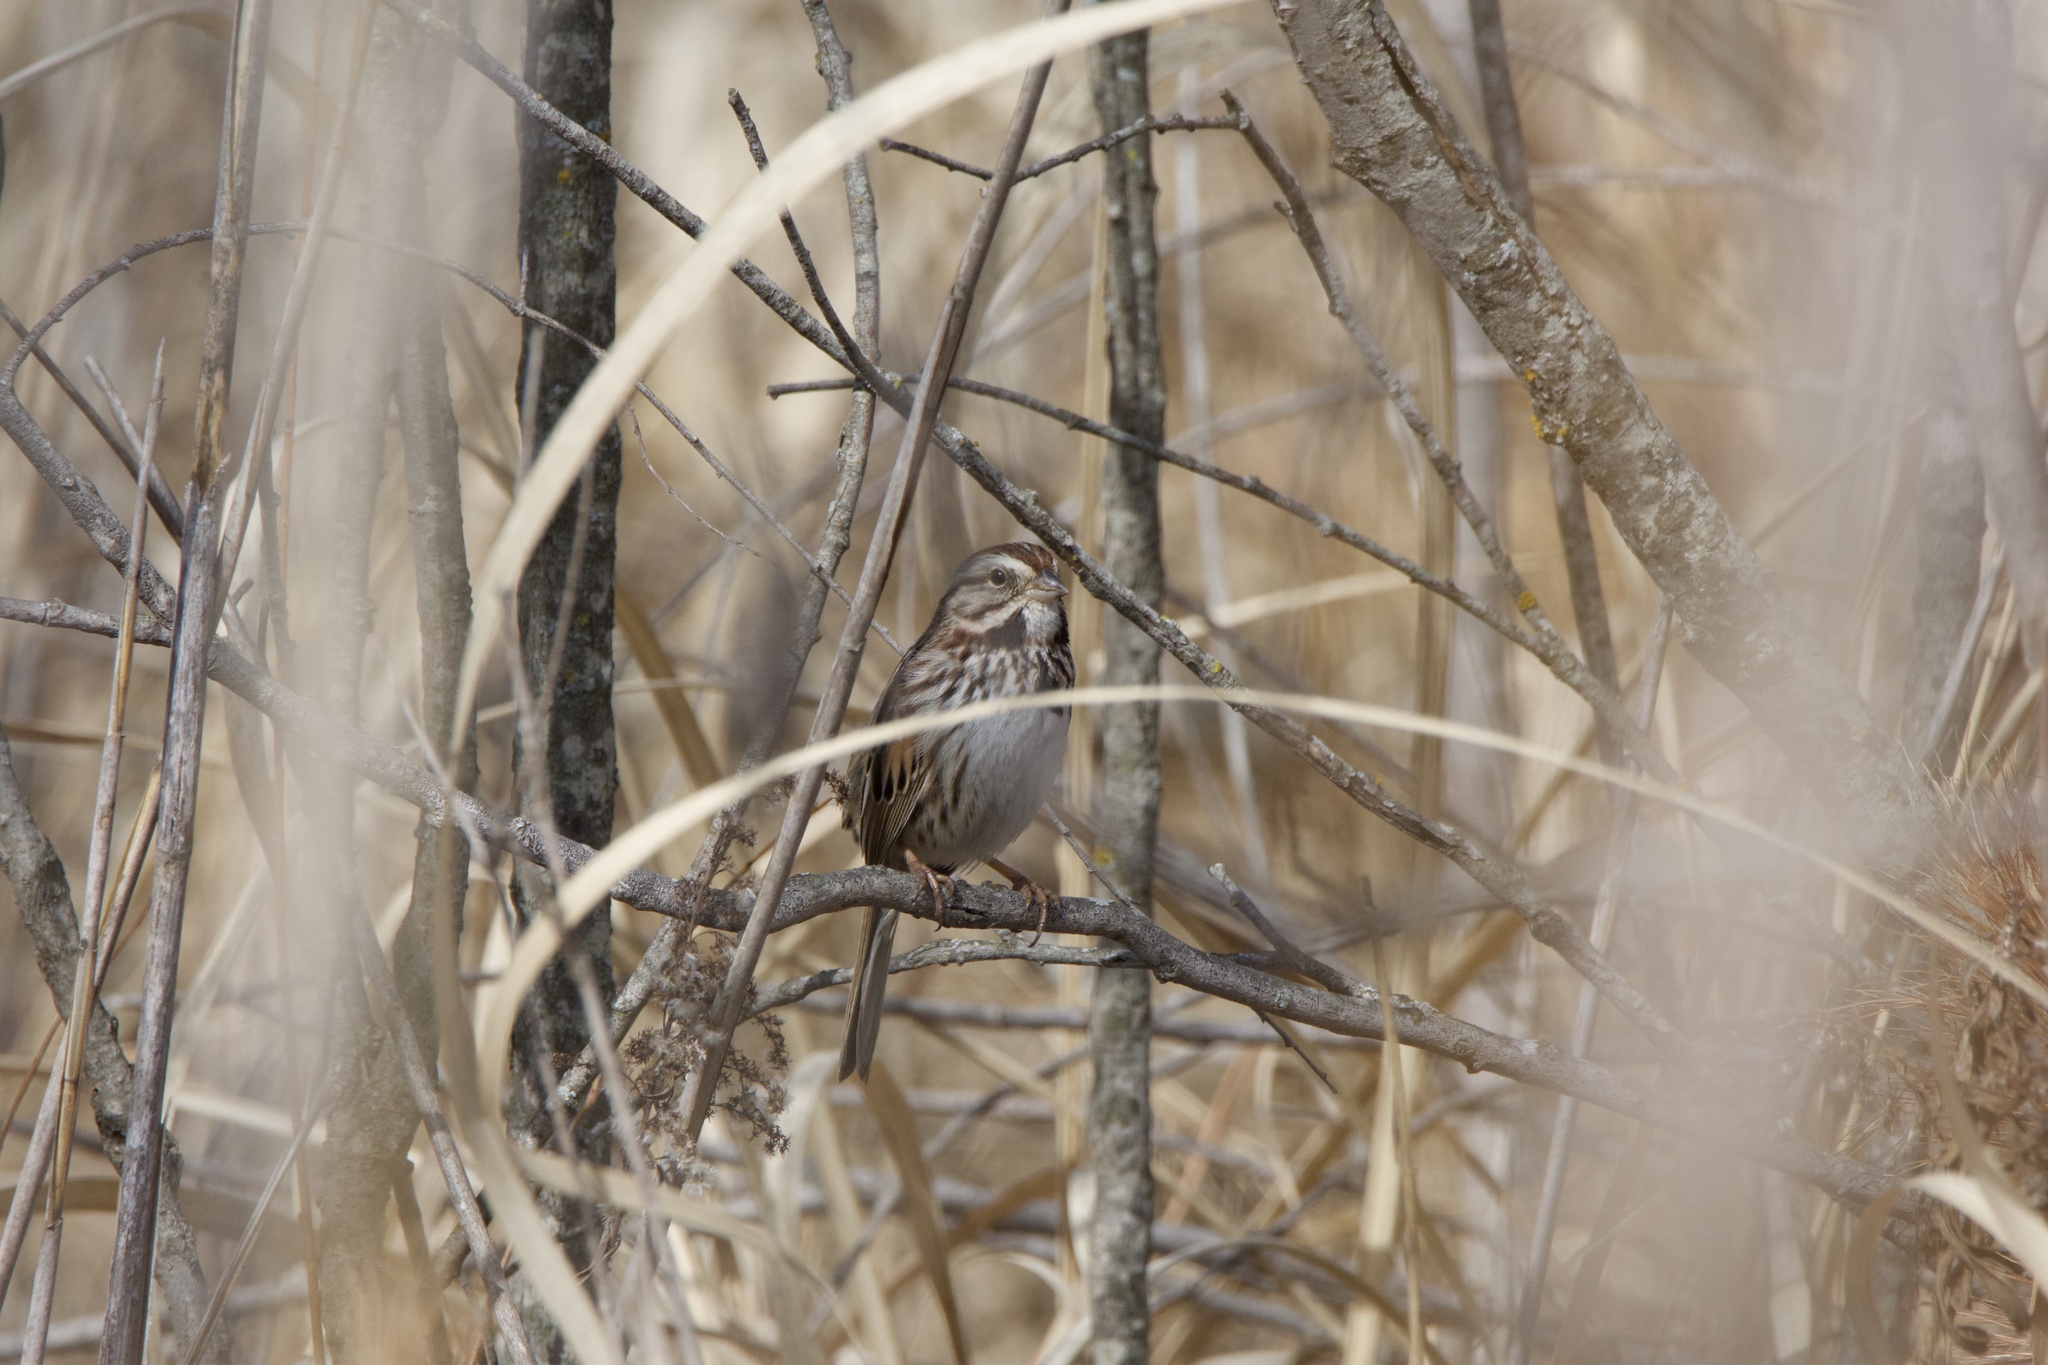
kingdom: Animalia
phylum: Chordata
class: Aves
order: Passeriformes
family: Passerellidae
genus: Melospiza
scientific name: Melospiza melodia
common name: Song sparrow
